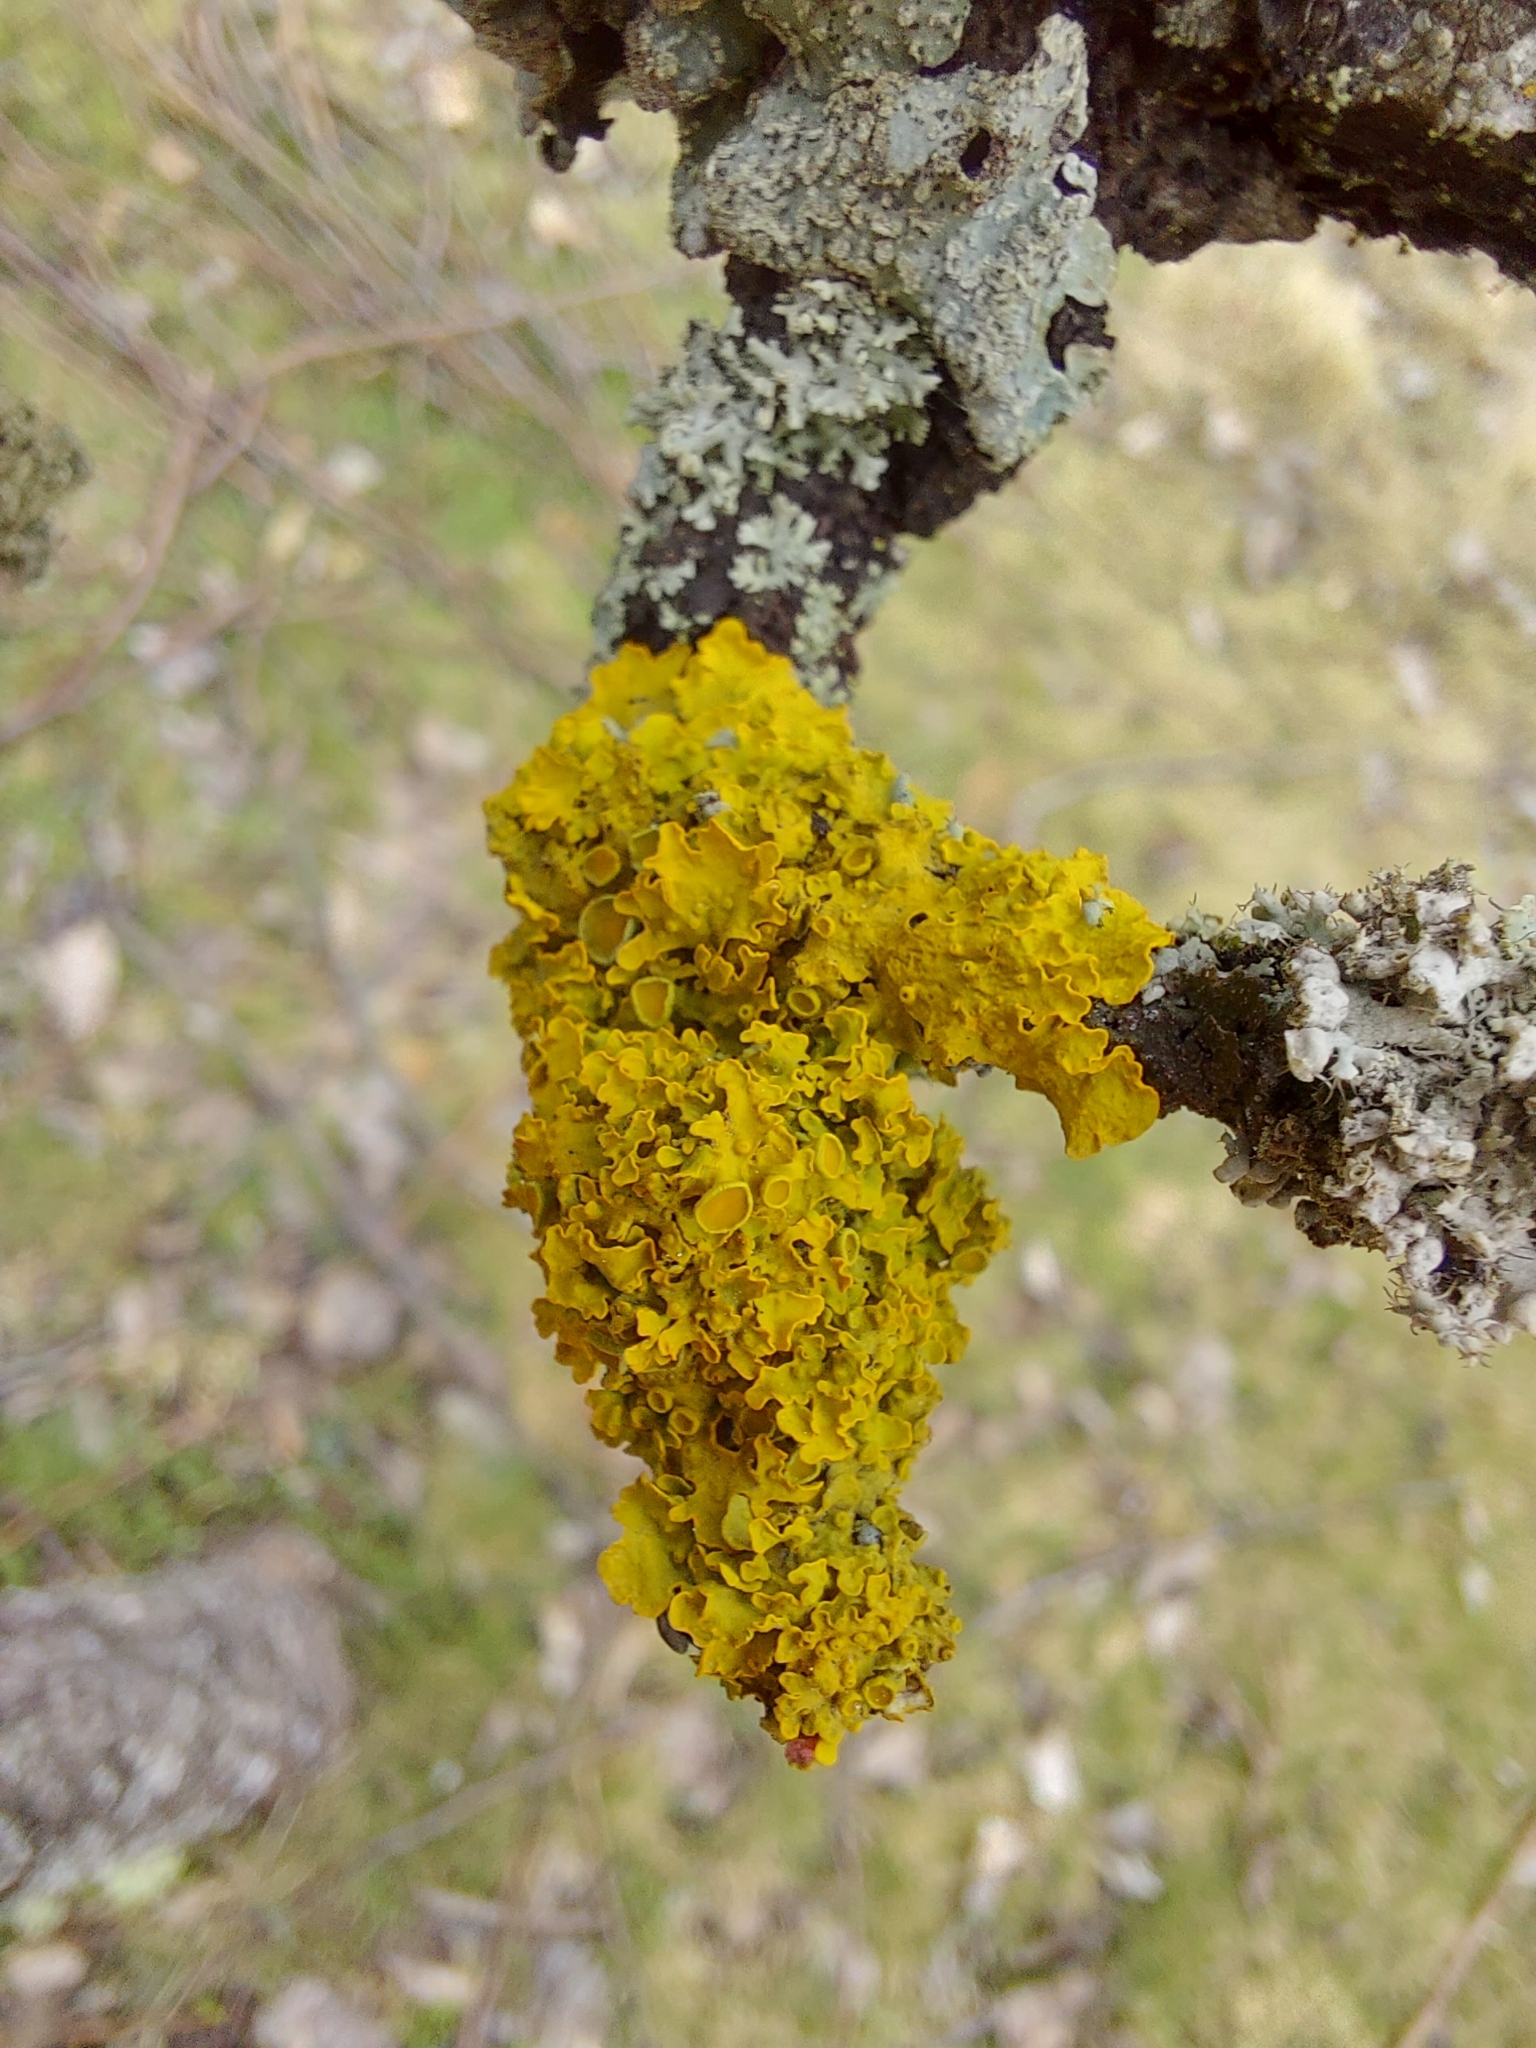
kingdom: Fungi
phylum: Ascomycota
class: Lecanoromycetes
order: Teloschistales
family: Teloschistaceae
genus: Xanthoria
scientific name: Xanthoria parietina
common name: Common orange lichen
